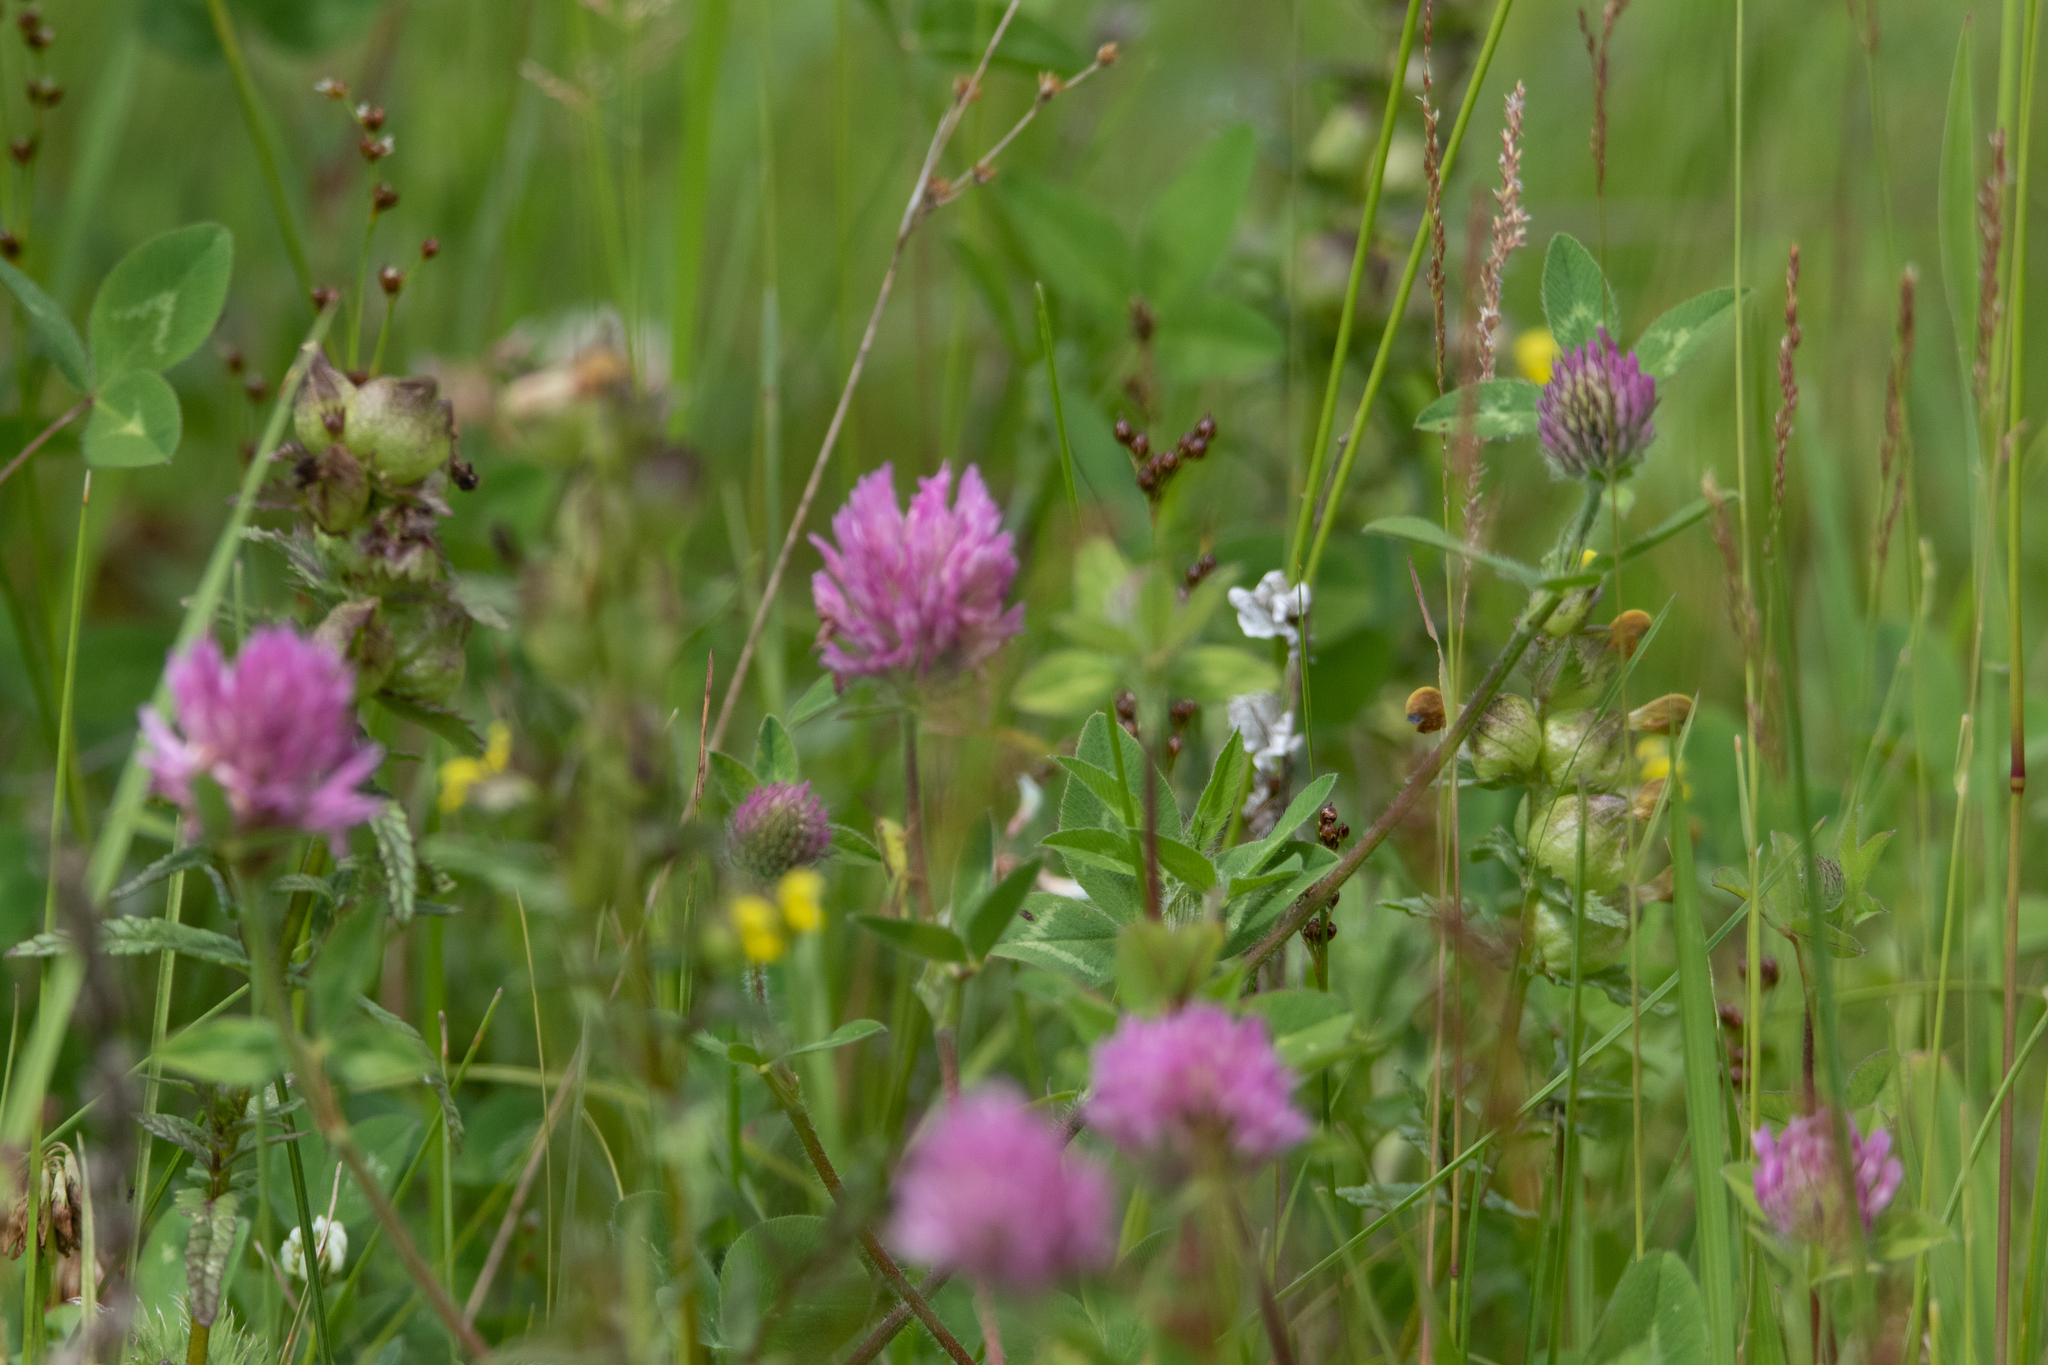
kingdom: Plantae
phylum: Tracheophyta
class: Magnoliopsida
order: Fabales
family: Fabaceae
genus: Trifolium
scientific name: Trifolium pratense
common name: Red clover
